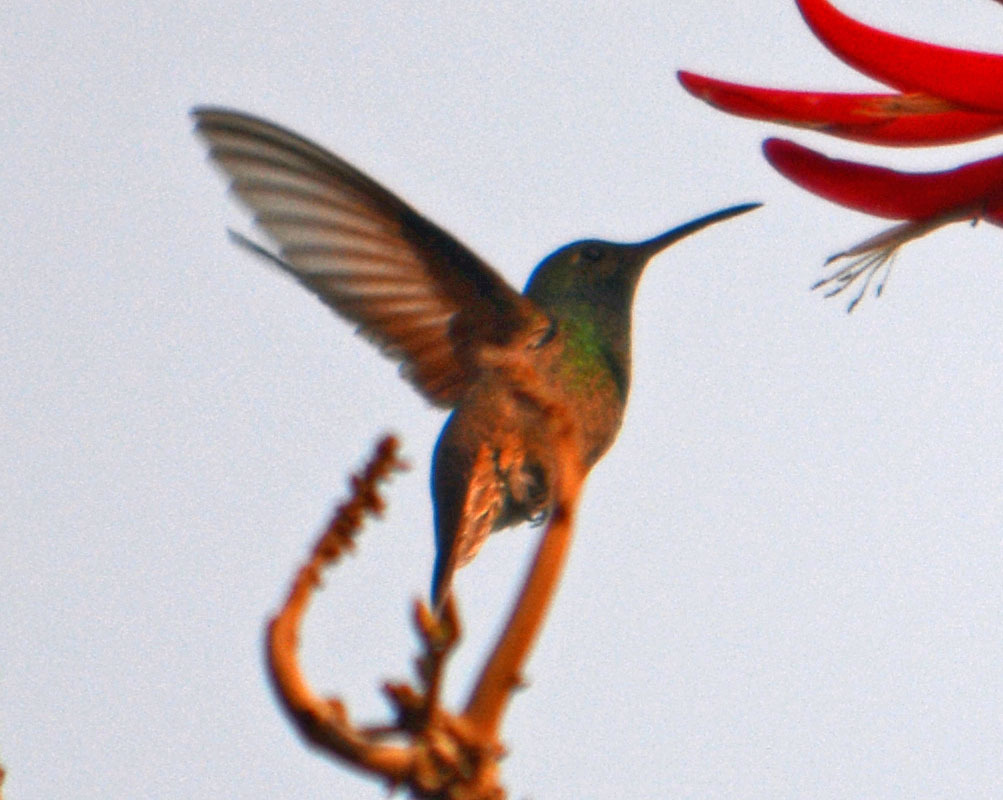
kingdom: Animalia
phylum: Chordata
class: Aves
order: Apodiformes
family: Trochilidae
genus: Saucerottia
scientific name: Saucerottia beryllina
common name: Berylline hummingbird
